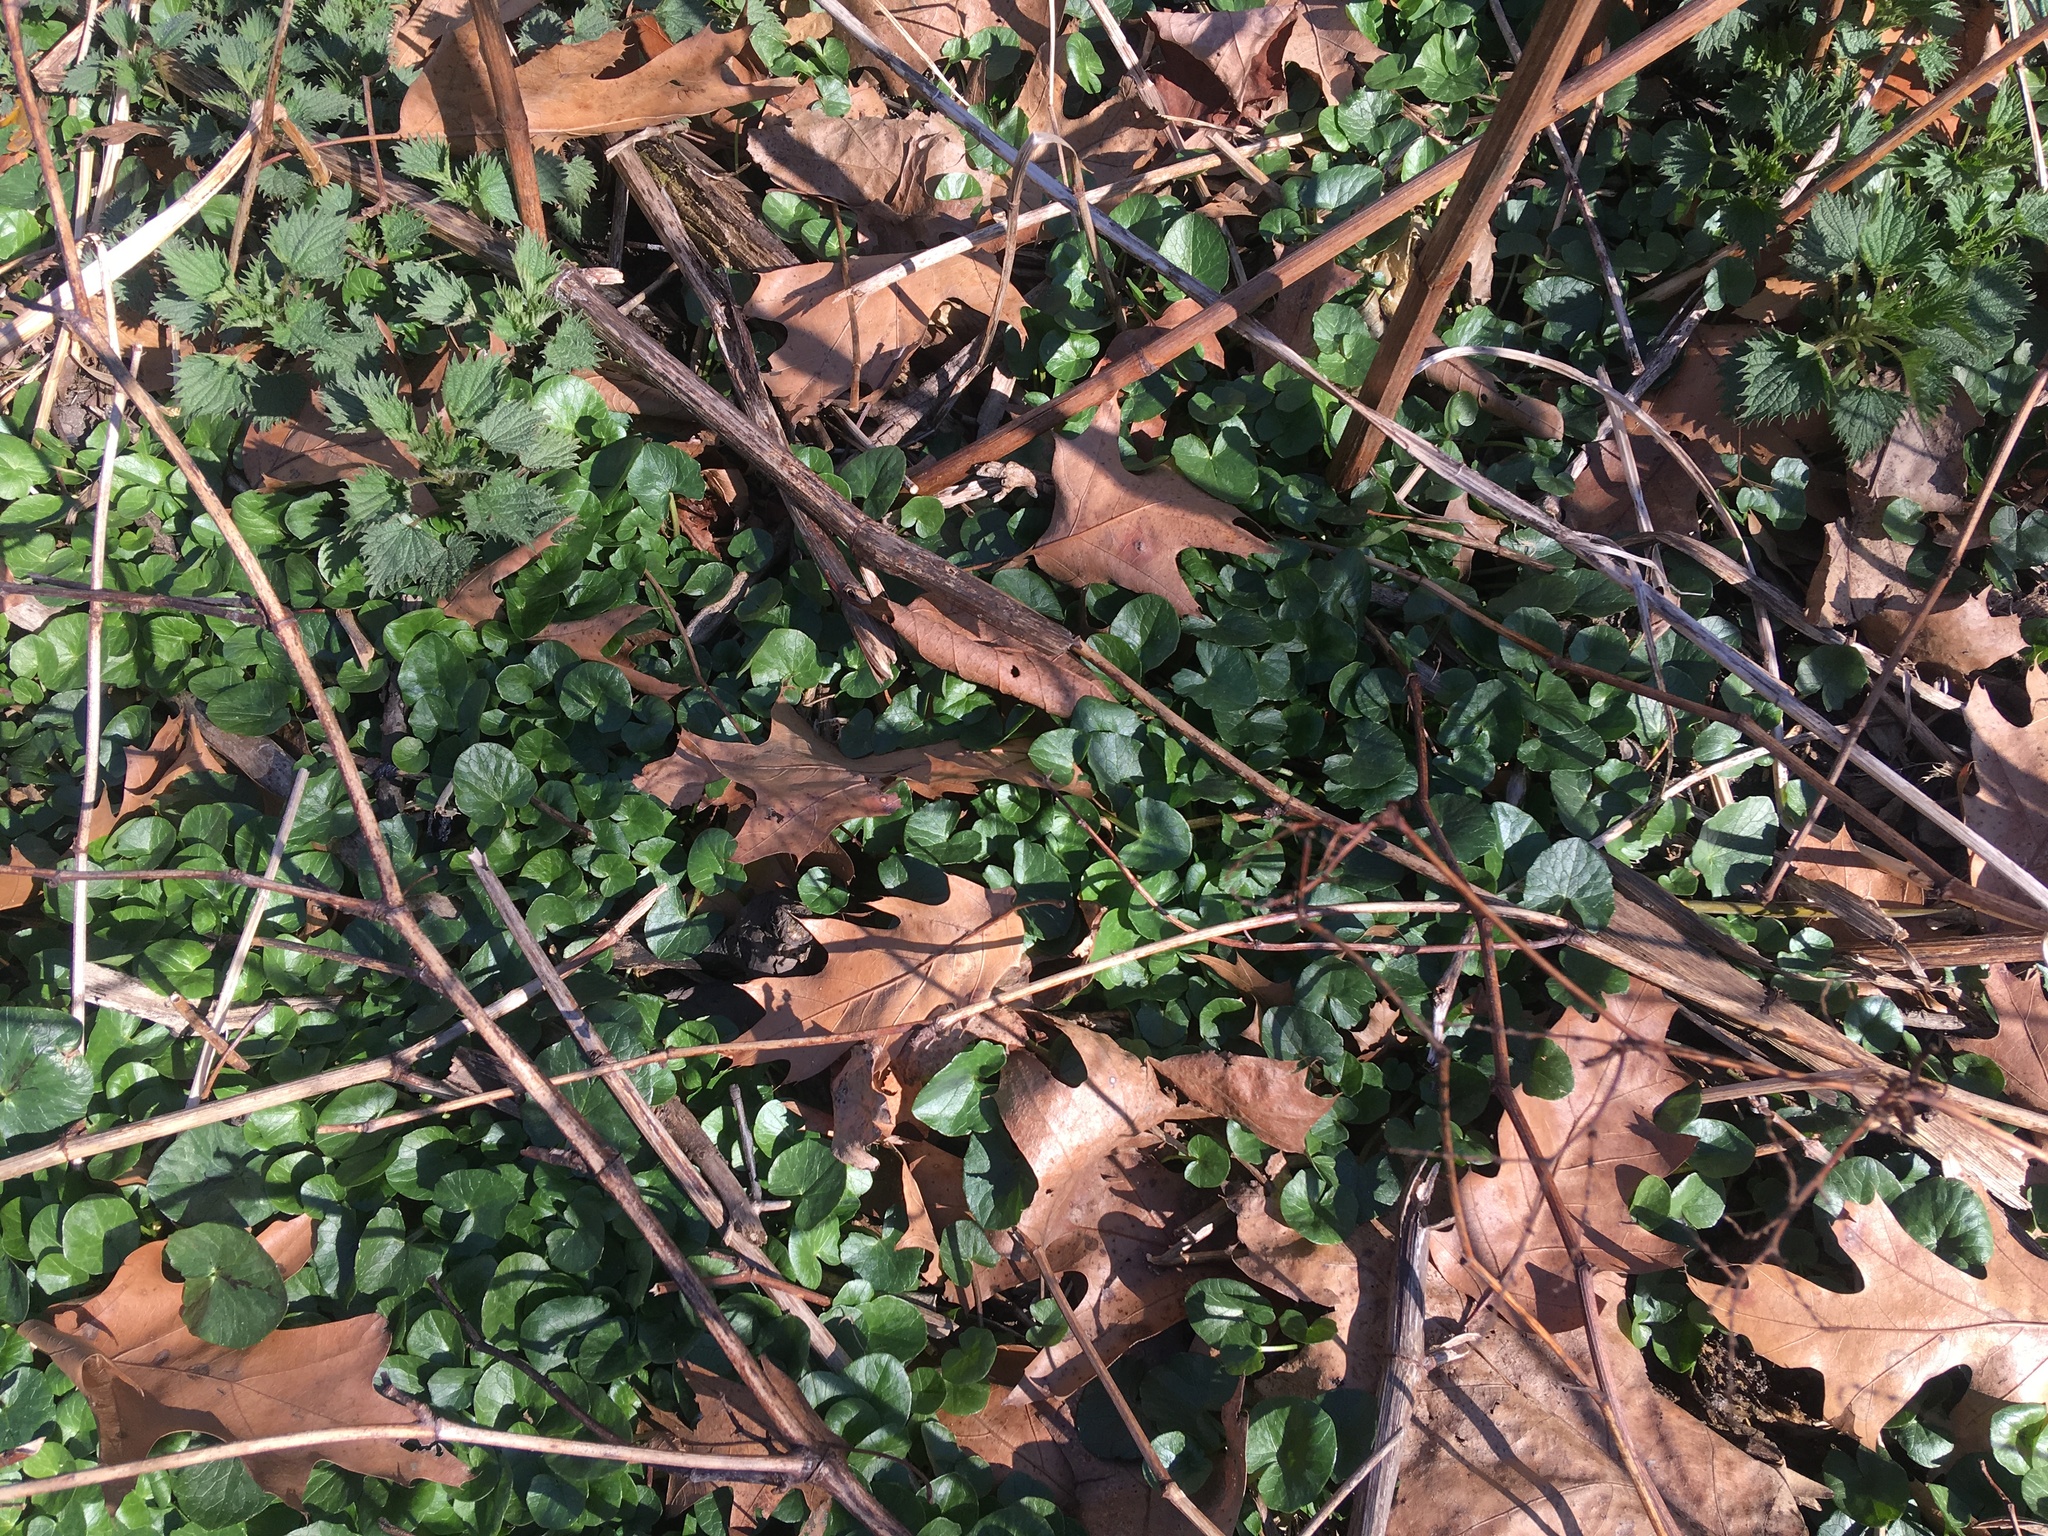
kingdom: Plantae
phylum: Tracheophyta
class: Magnoliopsida
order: Ranunculales
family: Ranunculaceae
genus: Ficaria
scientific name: Ficaria verna
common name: Lesser celandine
